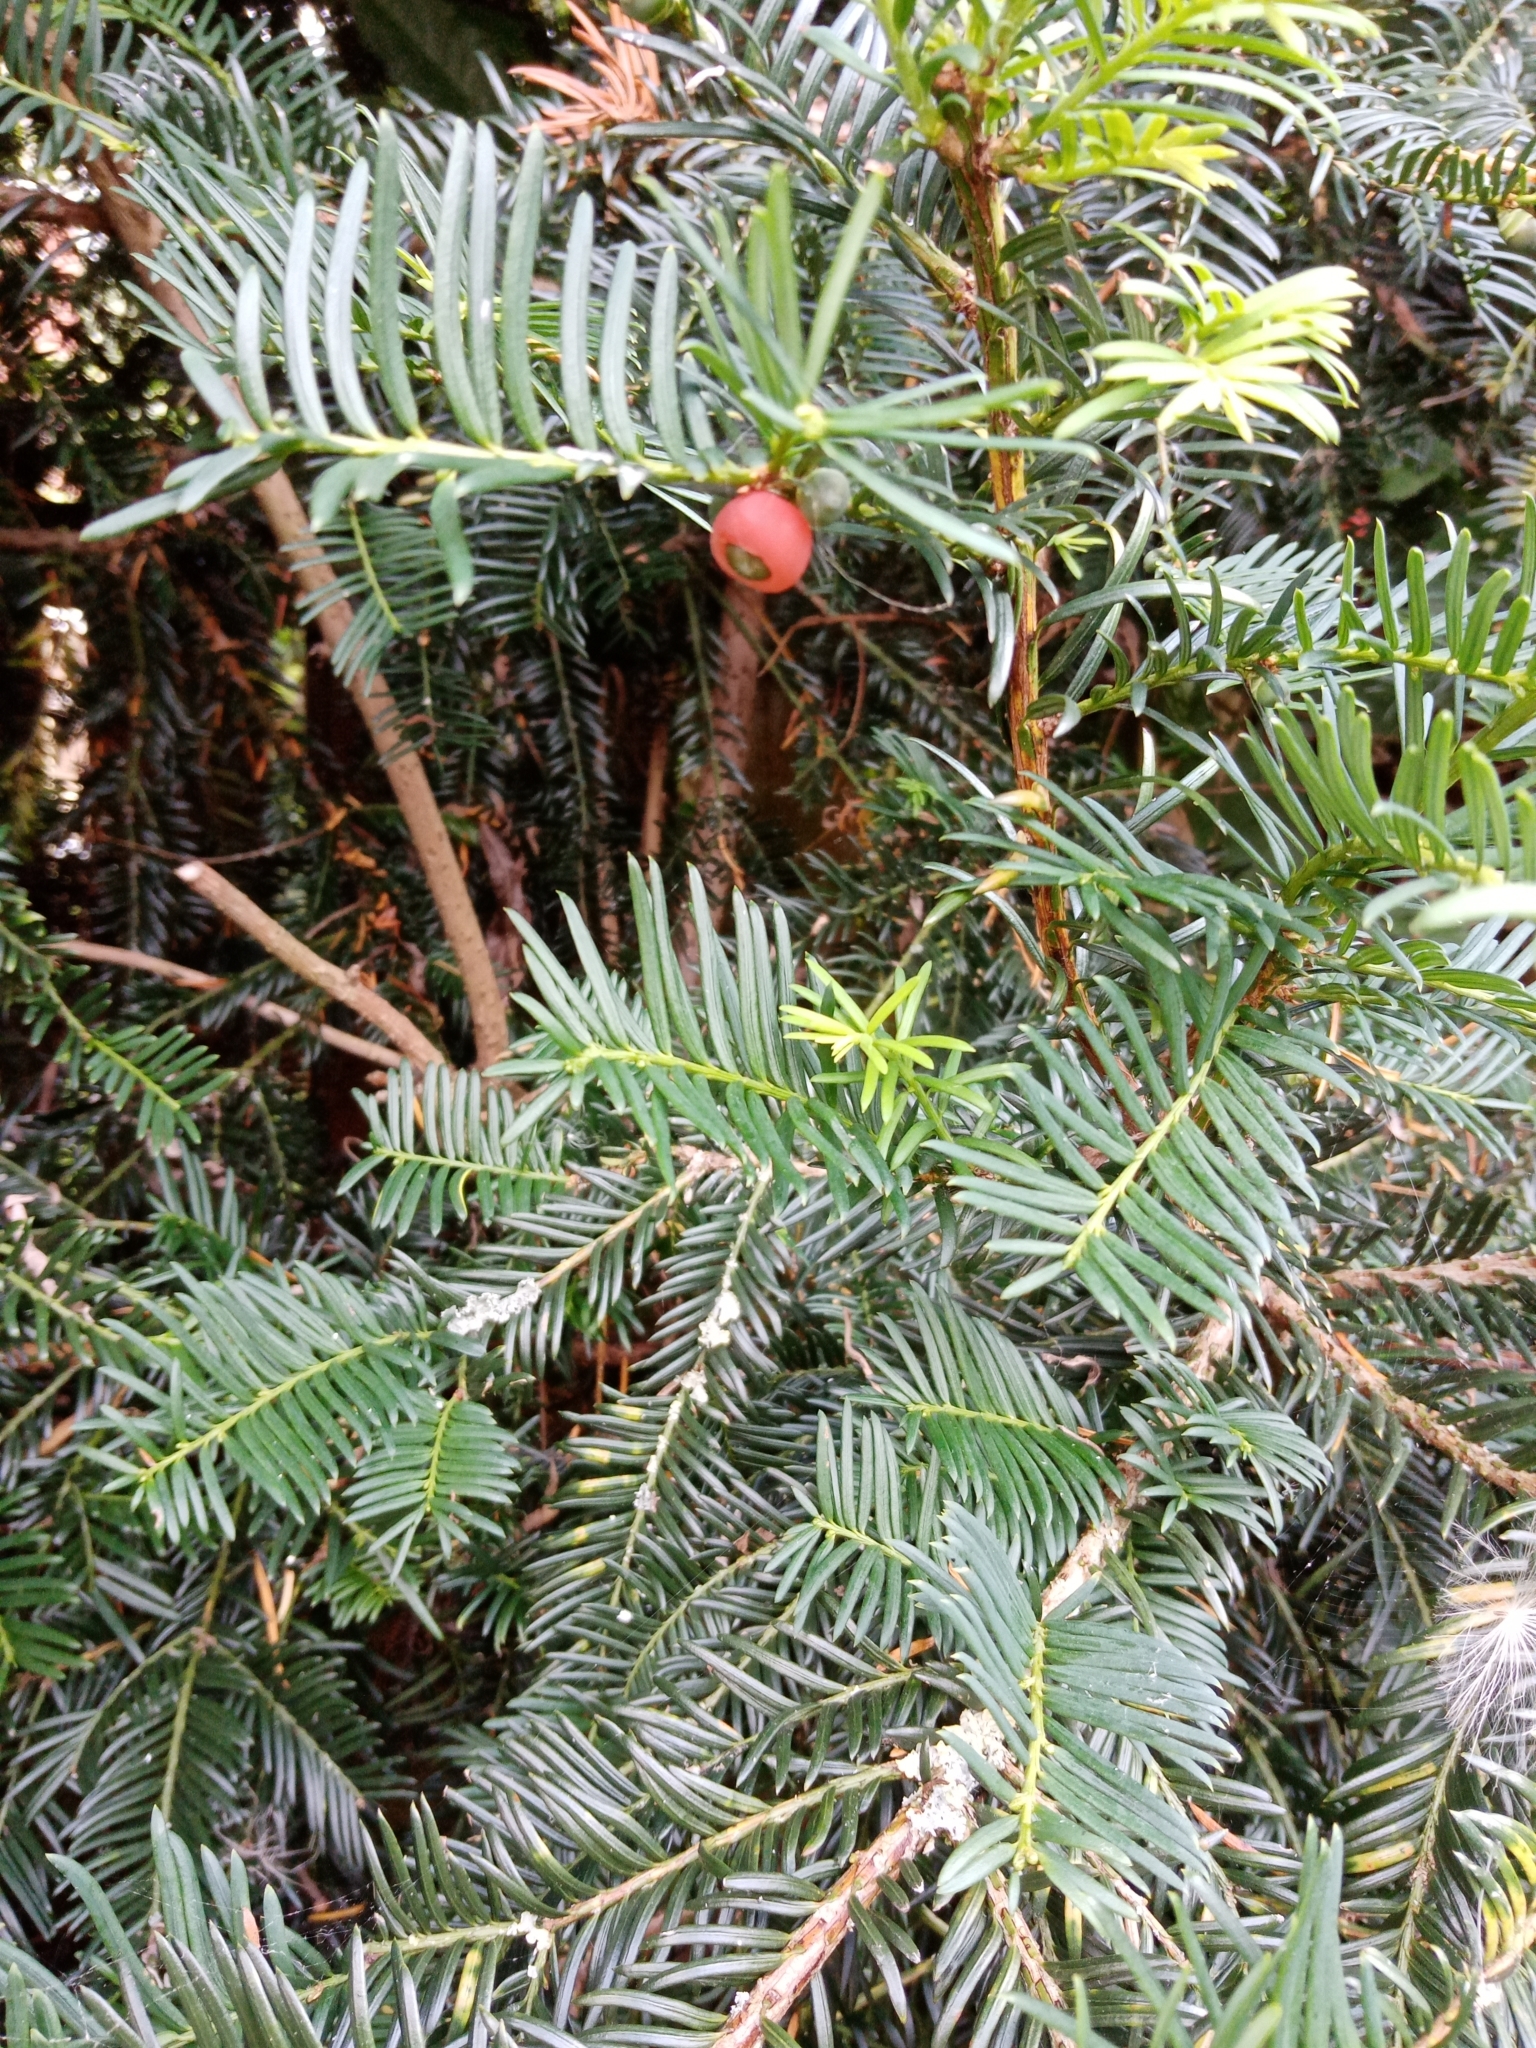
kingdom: Plantae
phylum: Tracheophyta
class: Pinopsida
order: Pinales
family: Taxaceae
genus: Taxus
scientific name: Taxus baccata
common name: Yew
